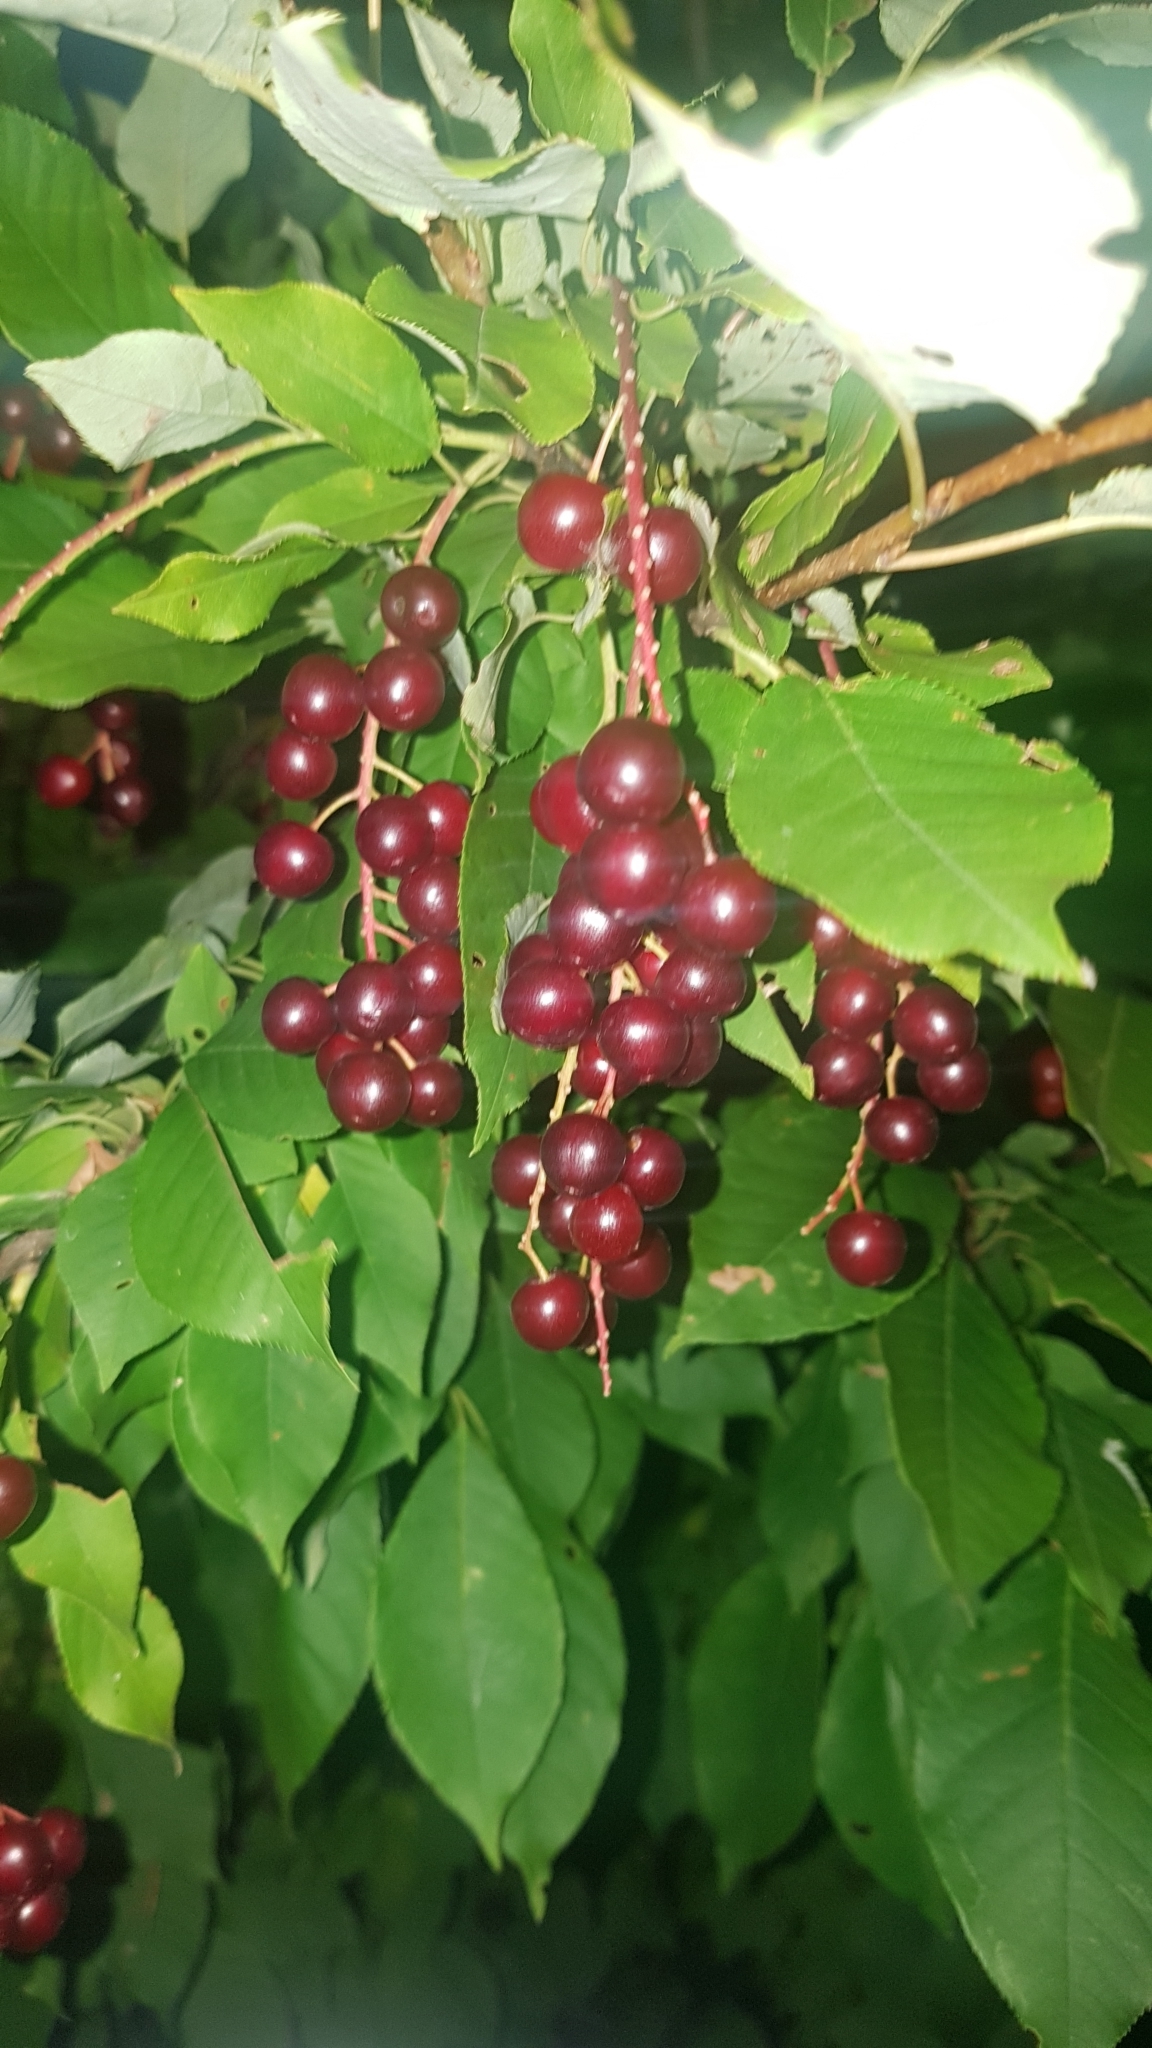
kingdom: Plantae
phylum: Tracheophyta
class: Magnoliopsida
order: Rosales
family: Rosaceae
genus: Prunus
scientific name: Prunus virginiana
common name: Chokecherry
